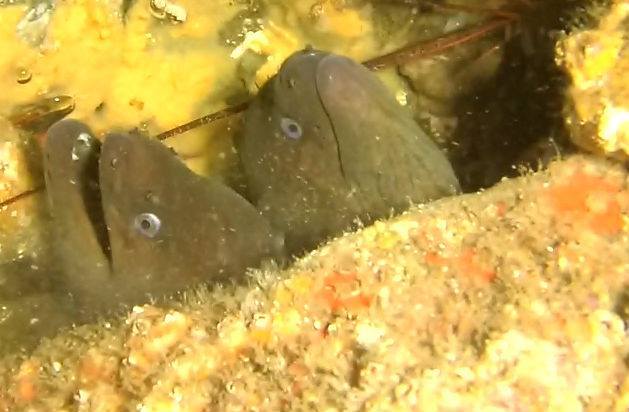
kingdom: Animalia
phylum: Chordata
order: Anguilliformes
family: Muraenidae
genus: Gymnothorax
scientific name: Gymnothorax mordax
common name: California moray
